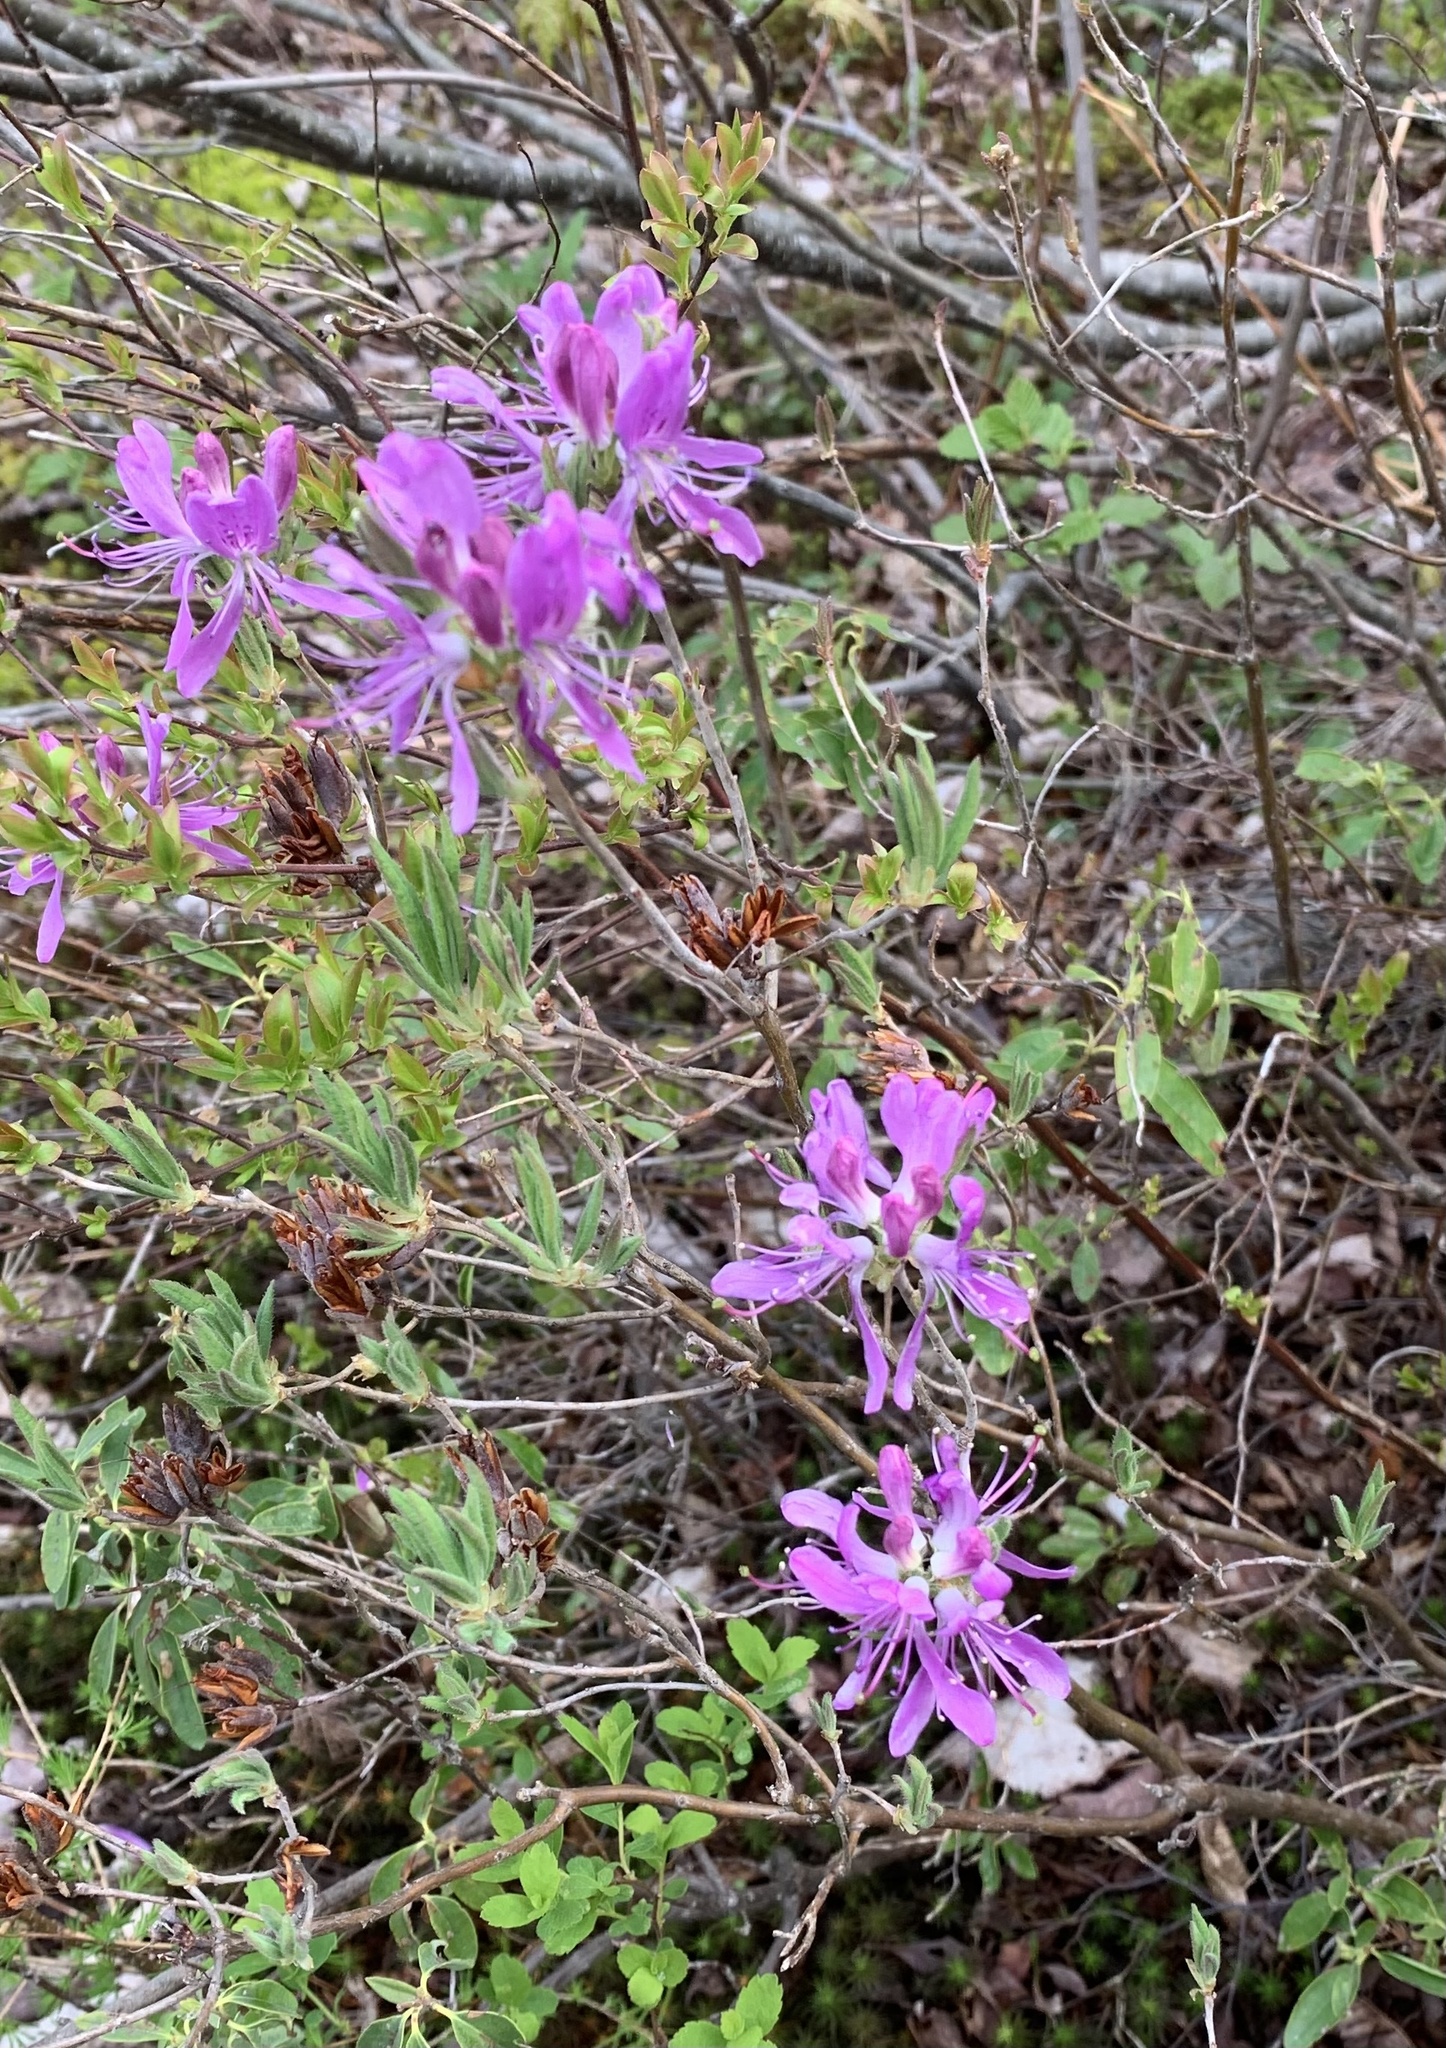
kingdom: Plantae
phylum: Tracheophyta
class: Magnoliopsida
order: Ericales
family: Ericaceae
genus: Rhododendron
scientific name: Rhododendron canadense
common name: Rhodora
